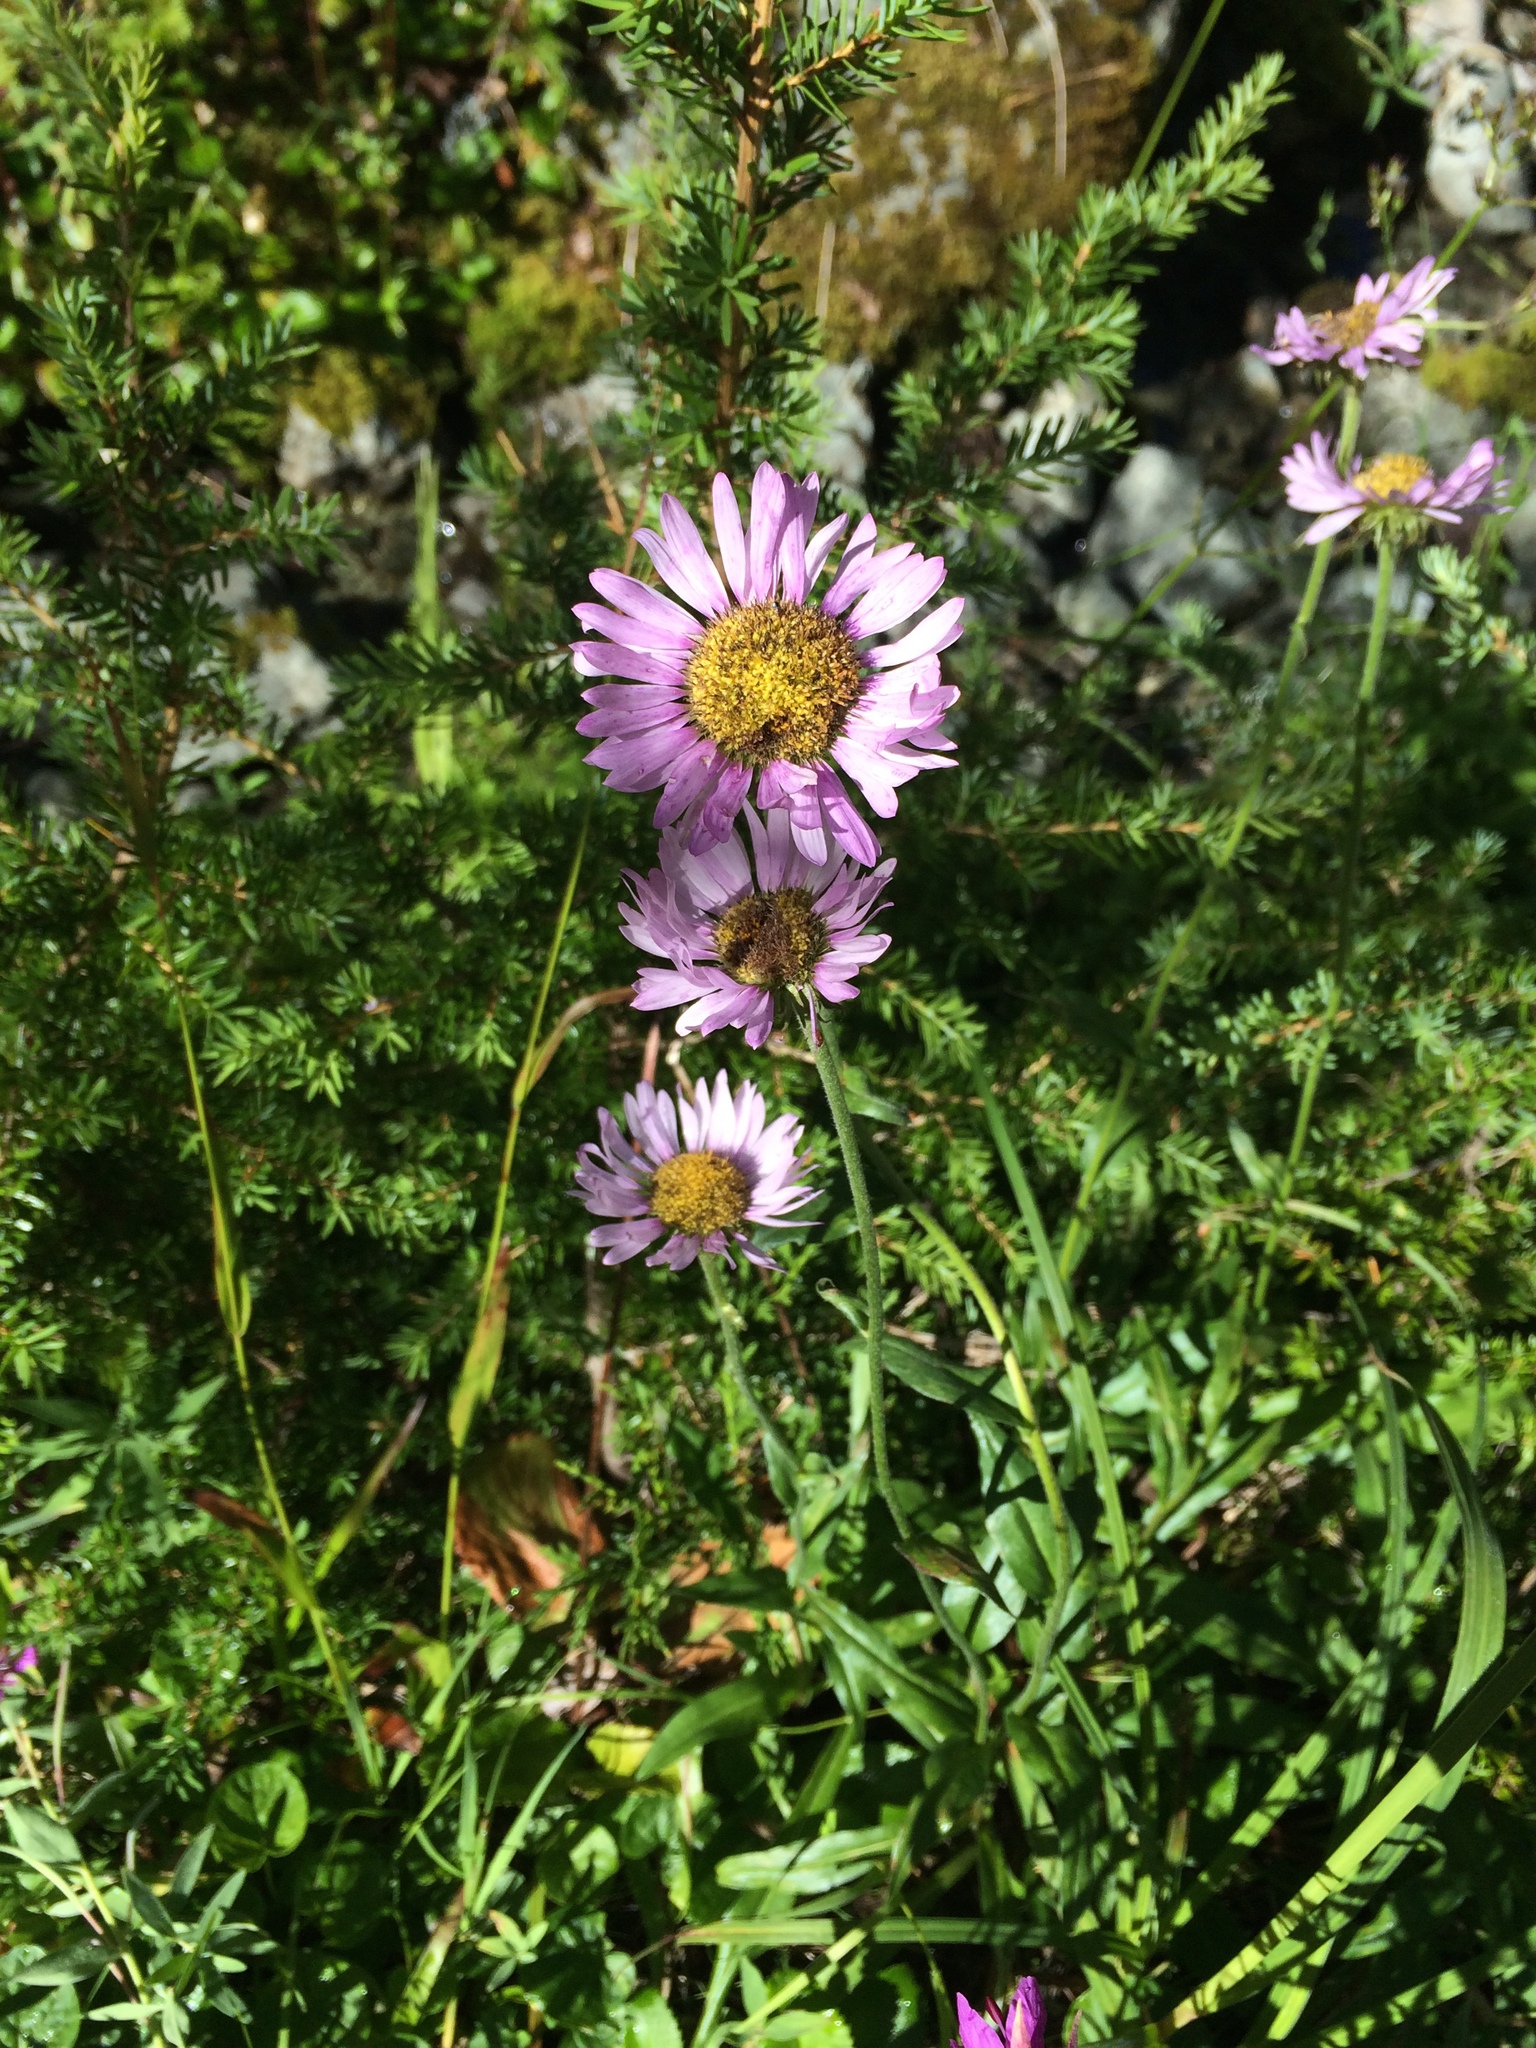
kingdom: Plantae
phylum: Tracheophyta
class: Magnoliopsida
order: Asterales
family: Asteraceae
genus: Erigeron
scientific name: Erigeron glacialis
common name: Subalpine fleabane
